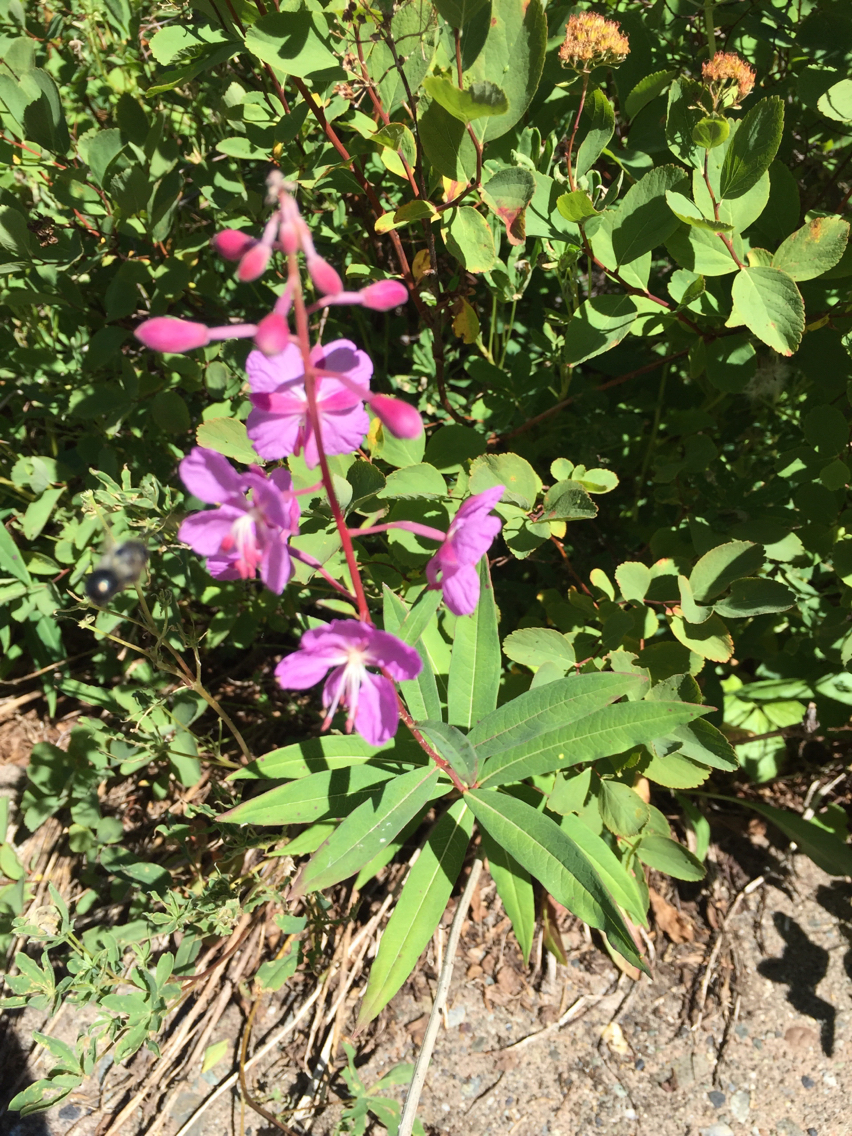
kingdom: Plantae
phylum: Tracheophyta
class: Magnoliopsida
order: Myrtales
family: Onagraceae
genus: Chamaenerion
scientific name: Chamaenerion angustifolium
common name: Fireweed
